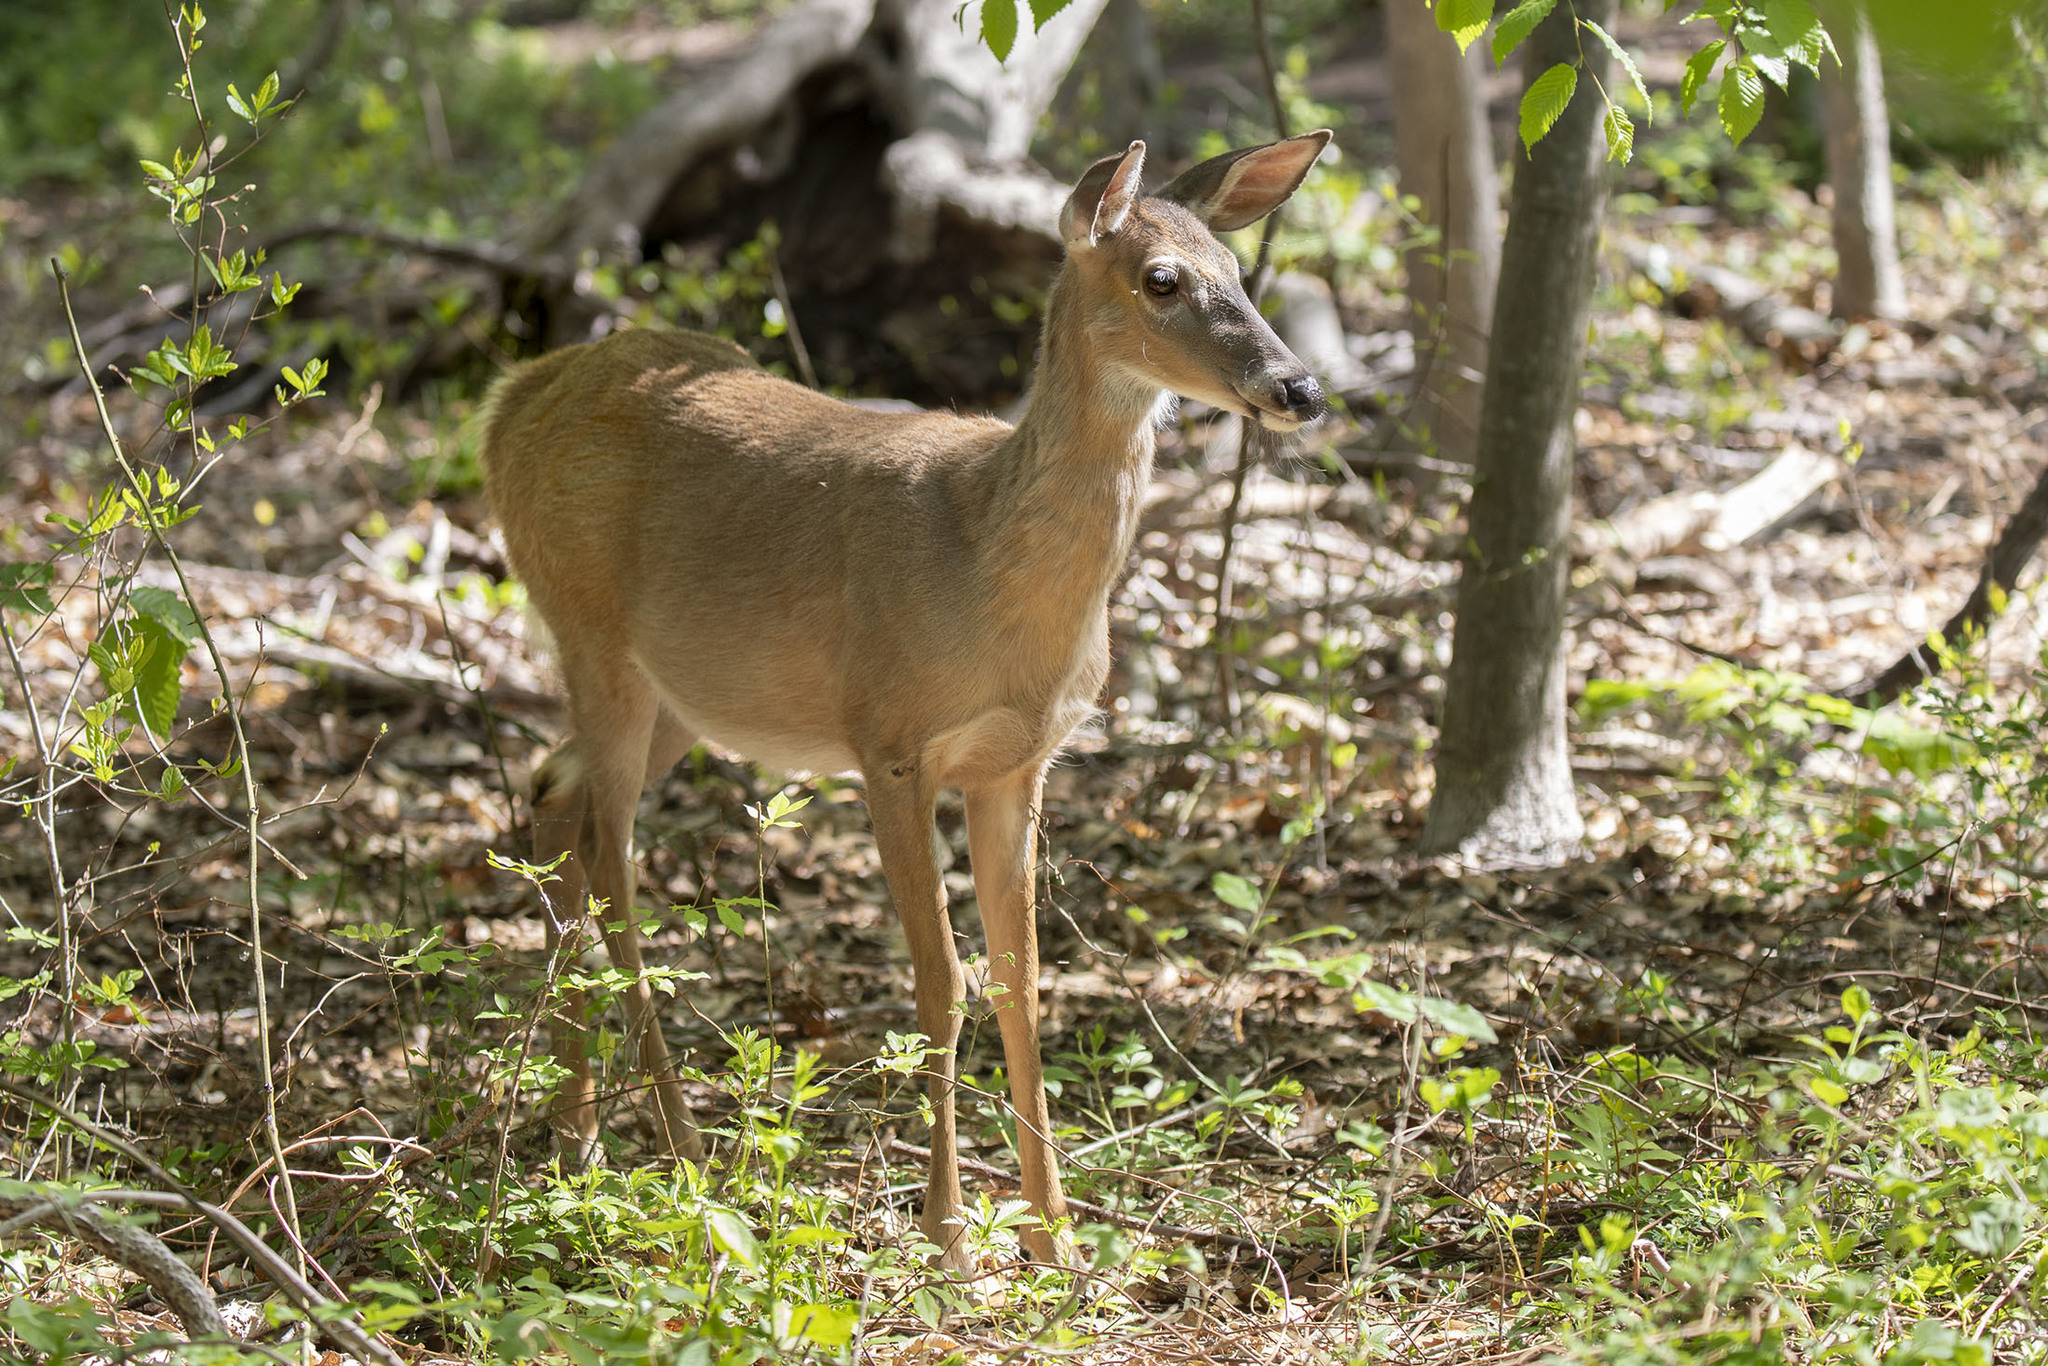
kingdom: Animalia
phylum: Chordata
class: Mammalia
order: Artiodactyla
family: Cervidae
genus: Odocoileus
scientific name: Odocoileus virginianus
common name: White-tailed deer
